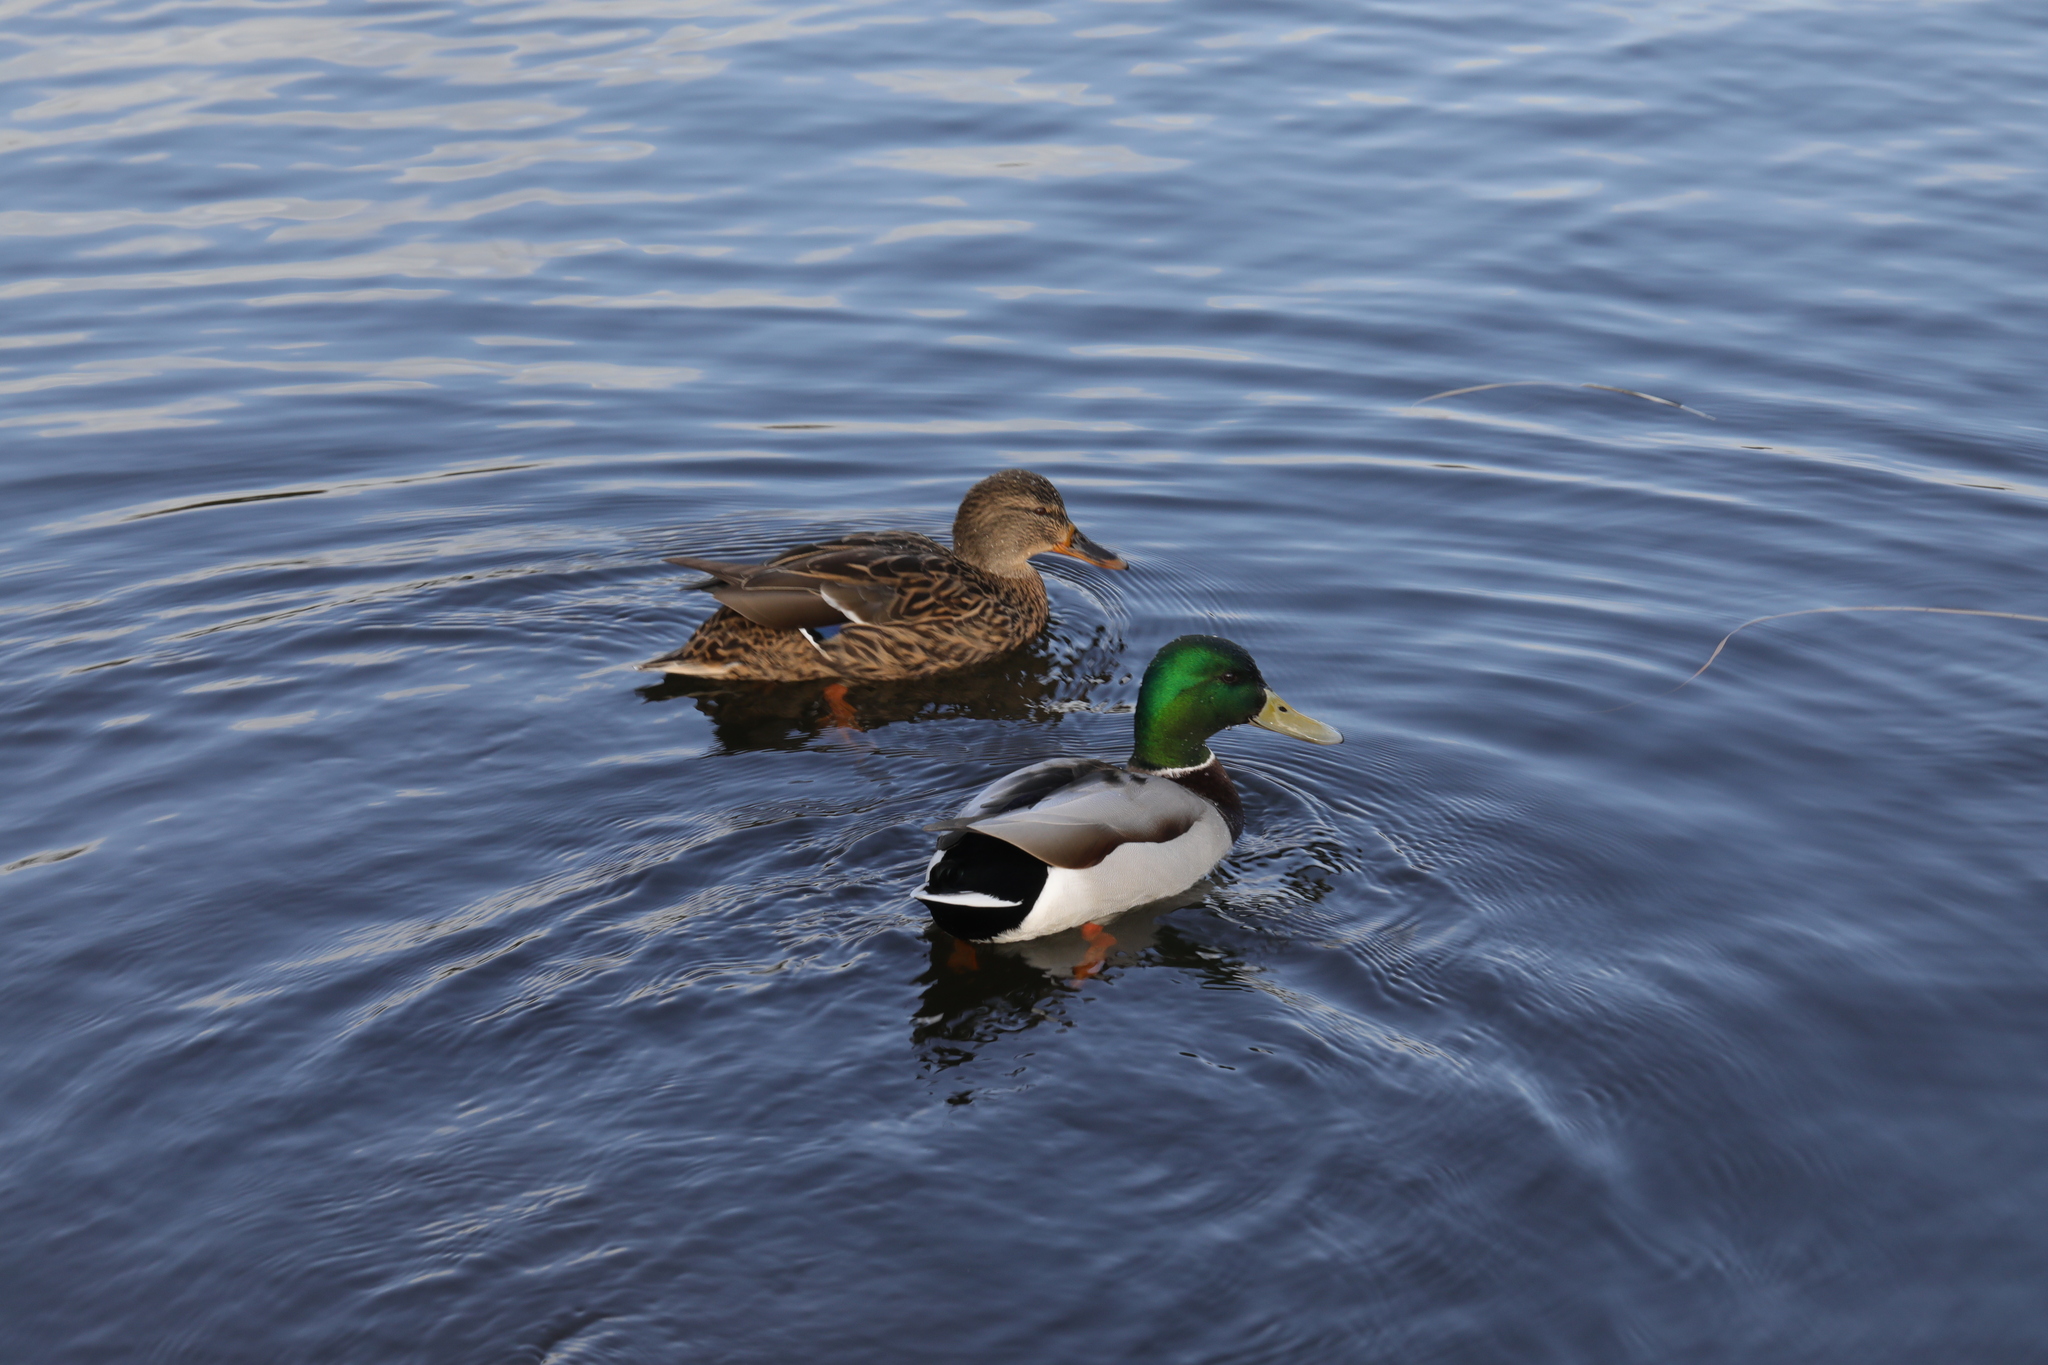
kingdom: Animalia
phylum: Chordata
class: Aves
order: Anseriformes
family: Anatidae
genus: Anas
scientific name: Anas platyrhynchos
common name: Mallard
